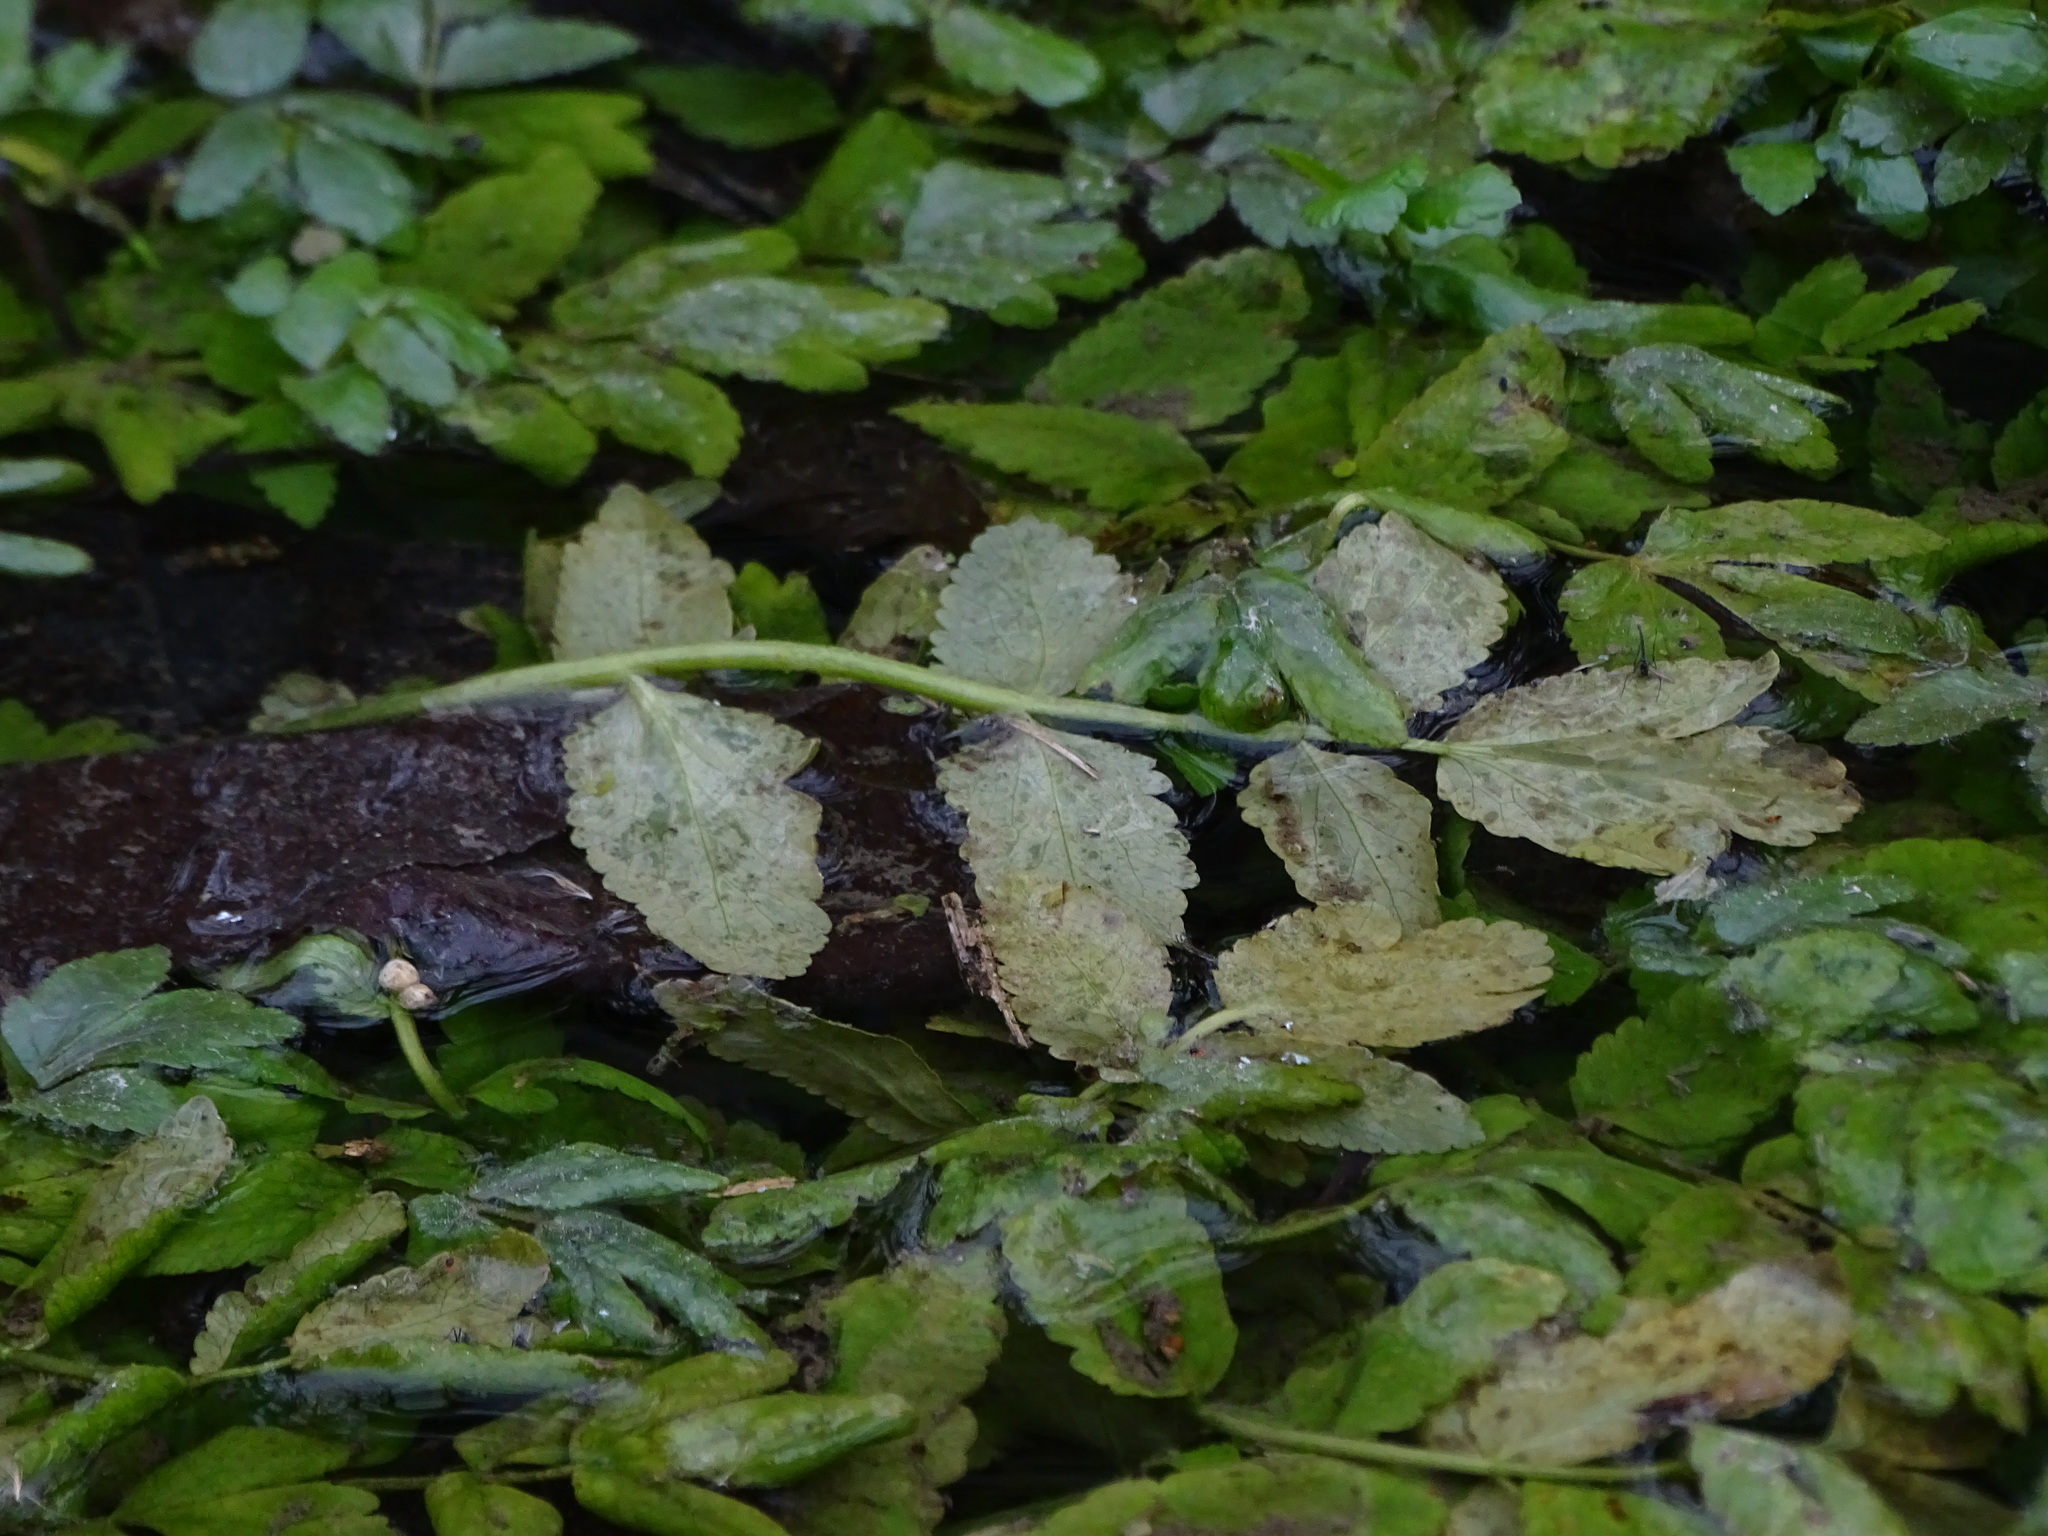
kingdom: Plantae
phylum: Tracheophyta
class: Magnoliopsida
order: Apiales
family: Apiaceae
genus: Berula
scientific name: Berula erecta
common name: Lesser water-parsnip
